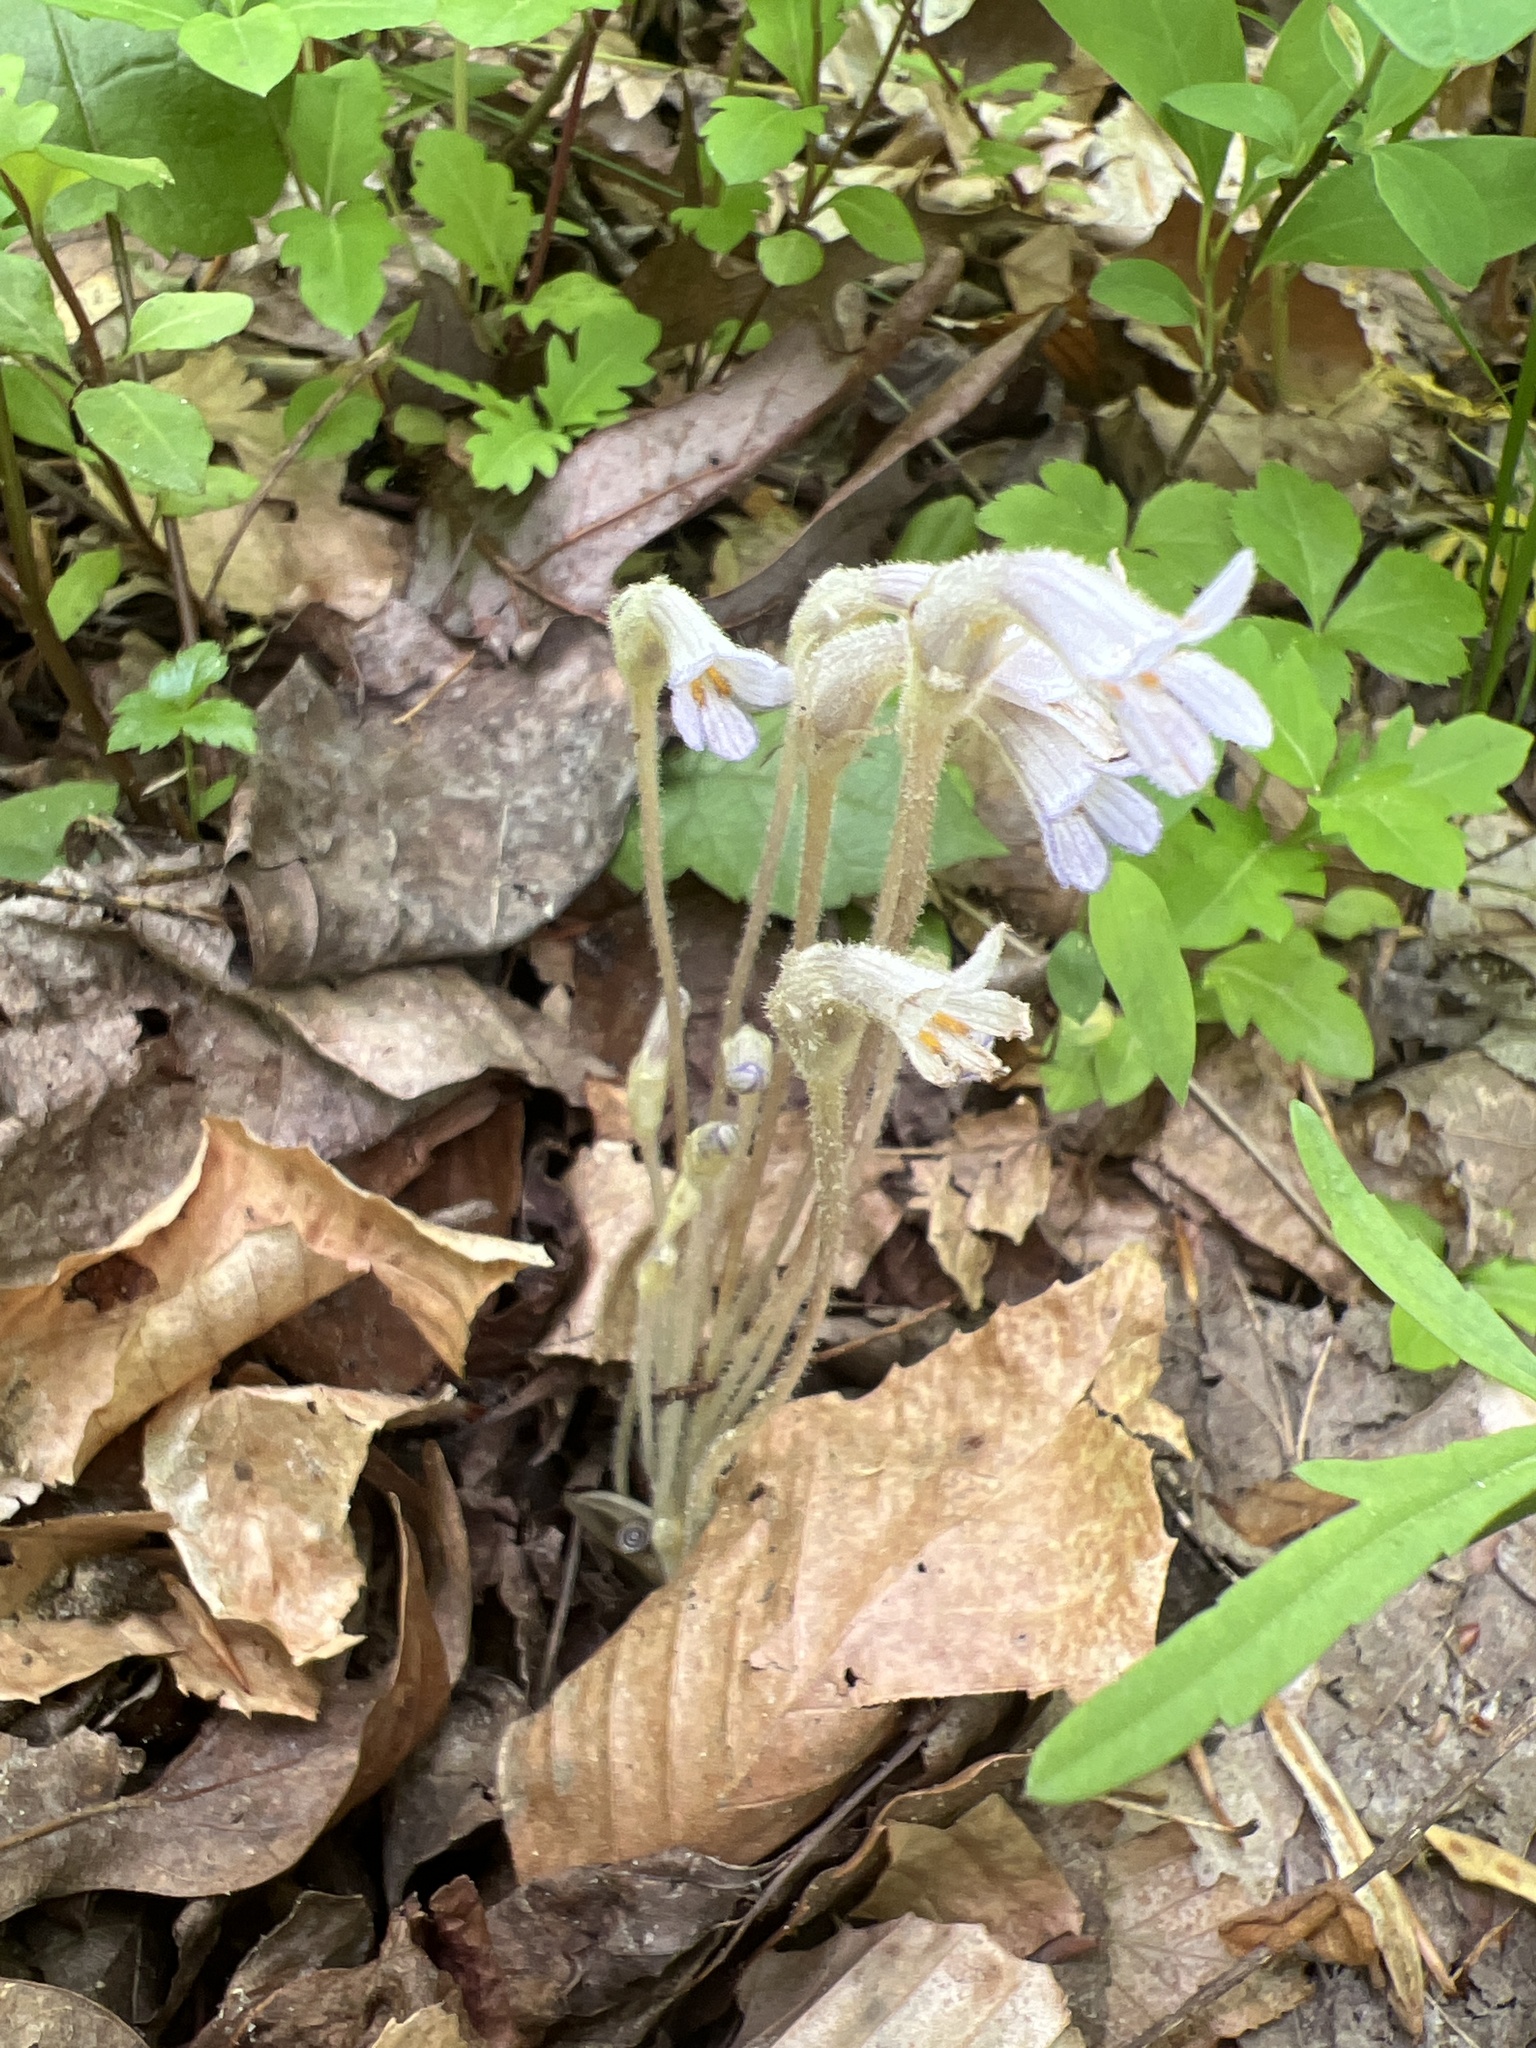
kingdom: Plantae
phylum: Tracheophyta
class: Magnoliopsida
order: Lamiales
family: Orobanchaceae
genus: Aphyllon
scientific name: Aphyllon uniflorum
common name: One-flowered broomrape
